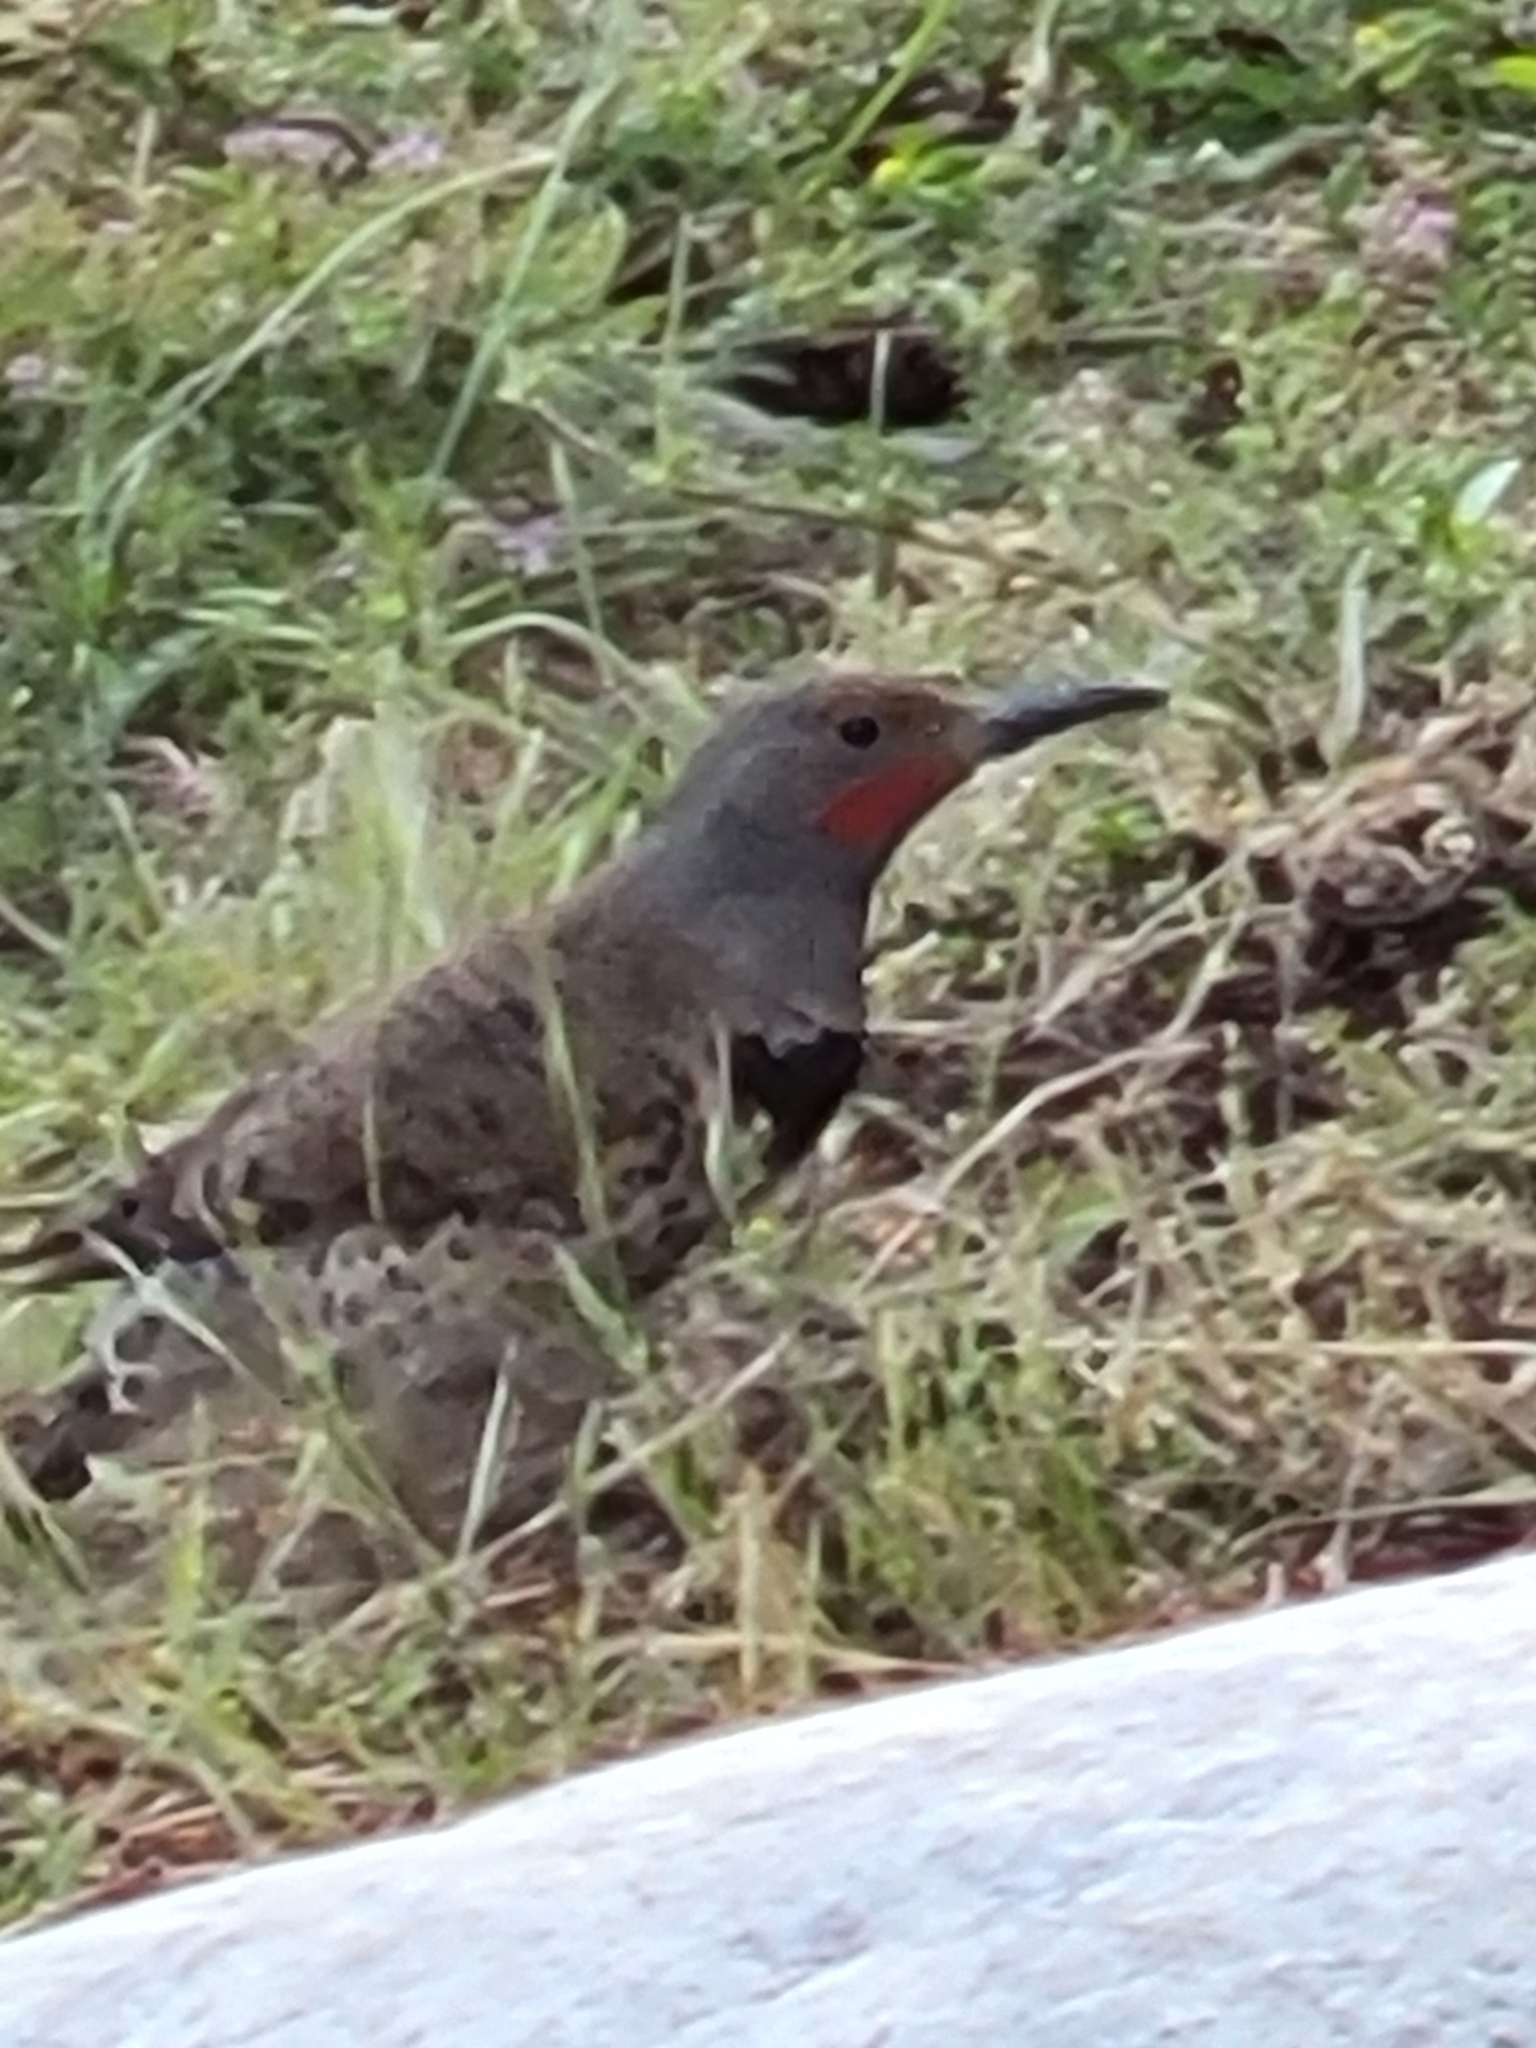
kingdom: Animalia
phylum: Chordata
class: Aves
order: Piciformes
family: Picidae
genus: Colaptes
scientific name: Colaptes auratus
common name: Northern flicker
